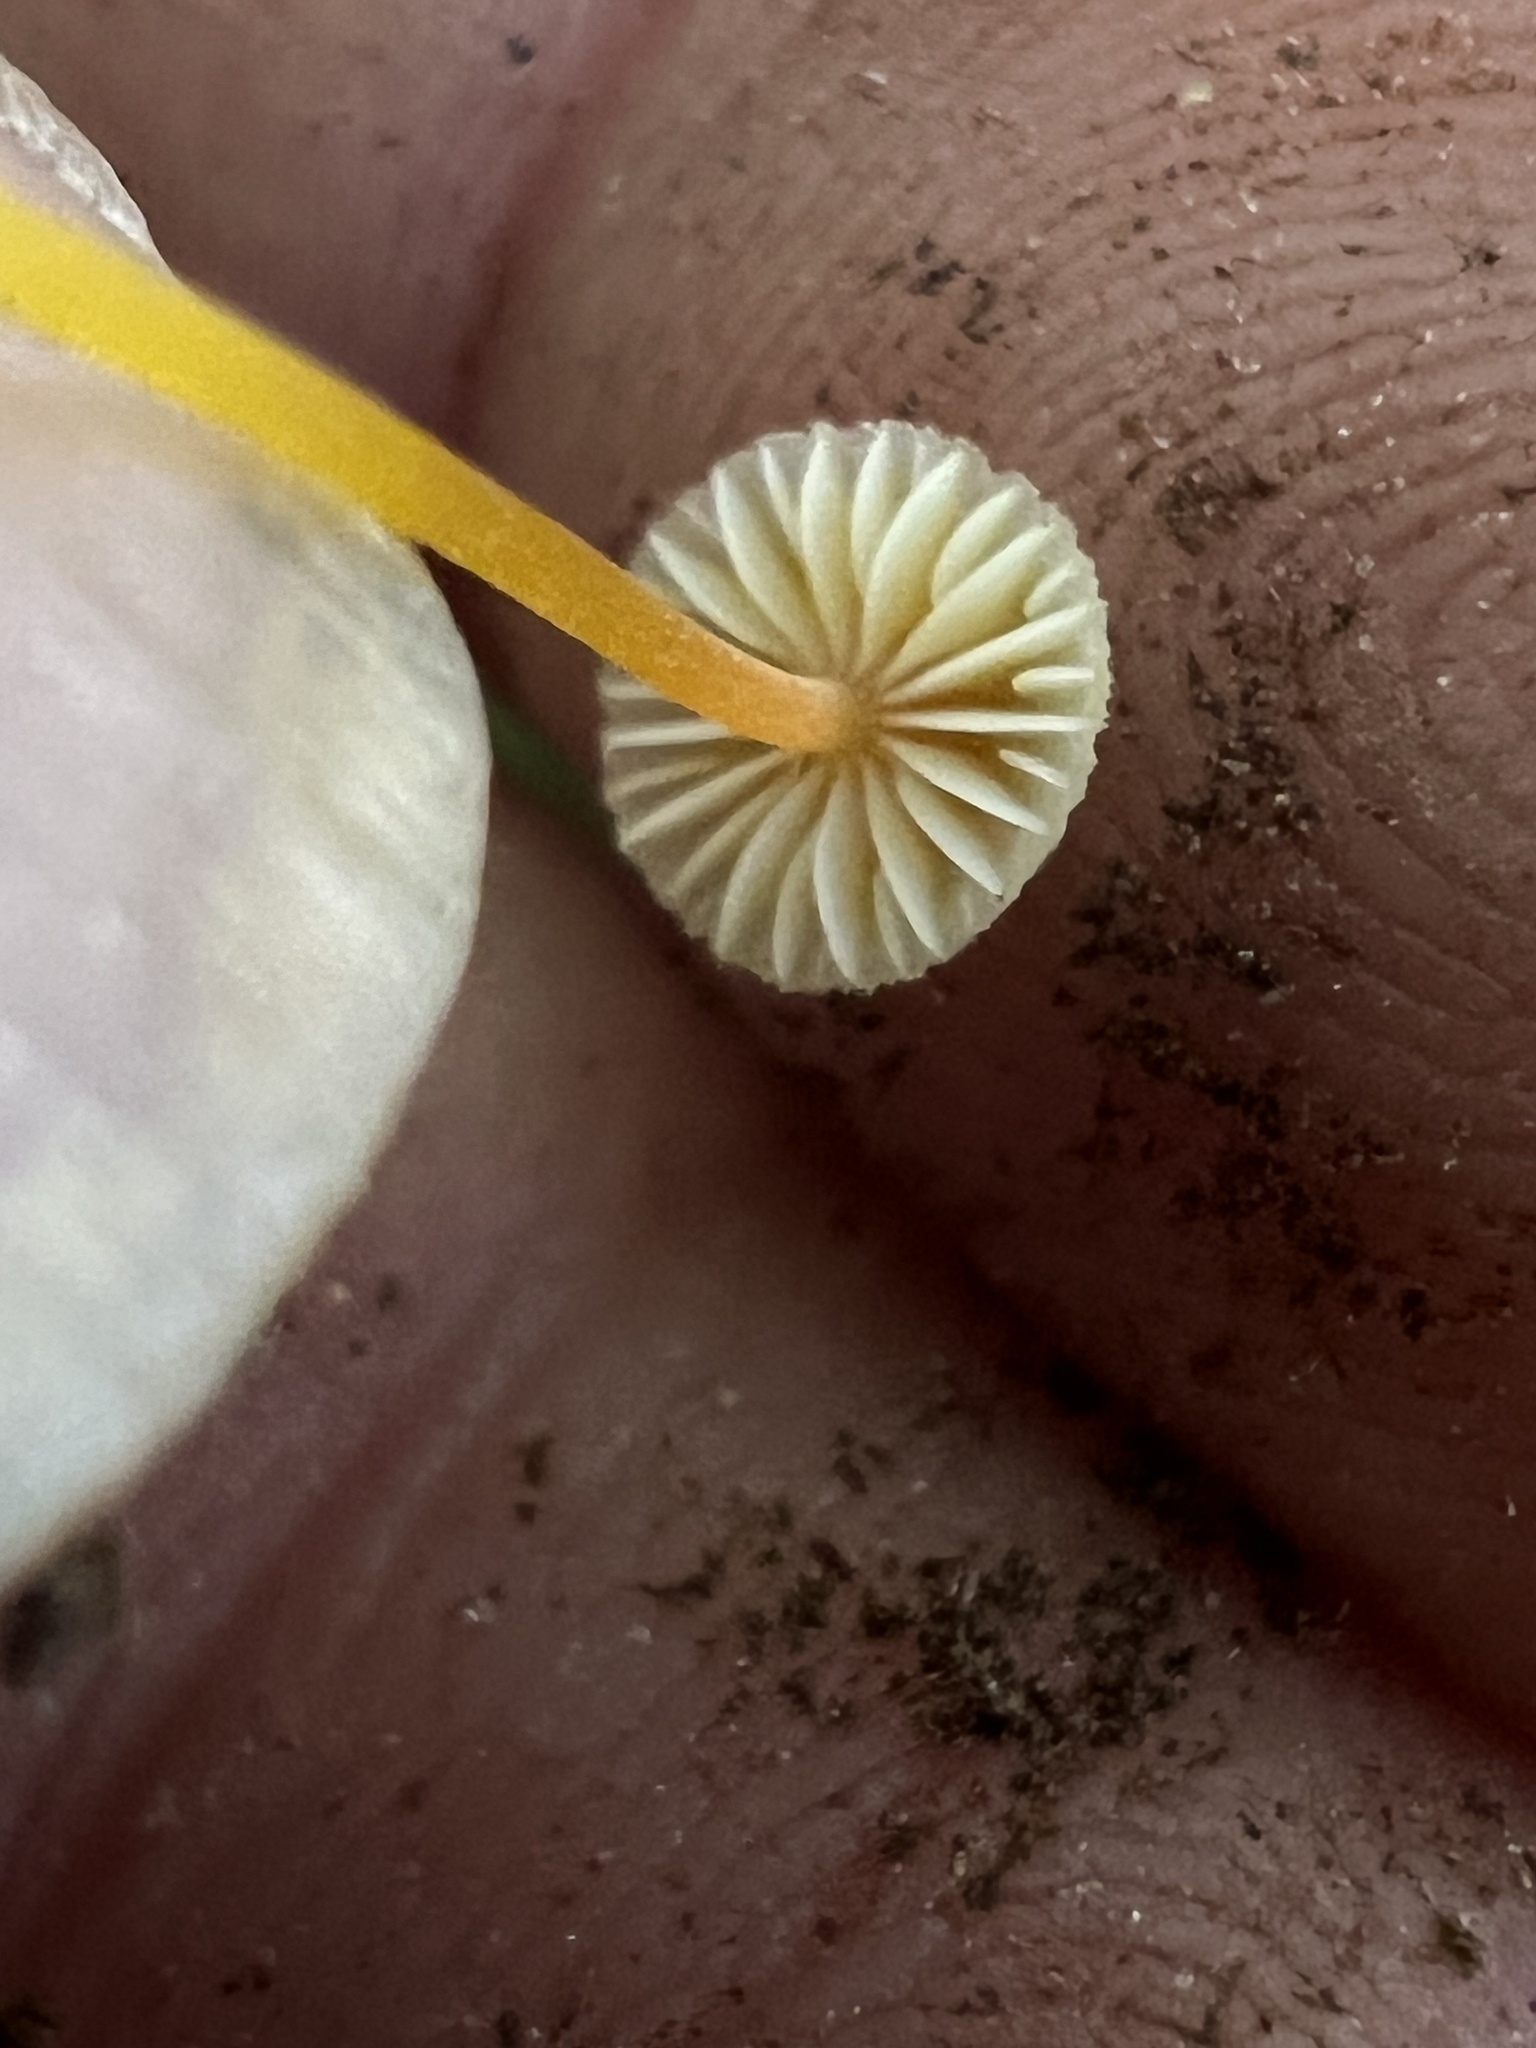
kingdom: Fungi
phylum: Basidiomycota
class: Agaricomycetes
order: Agaricales
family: Mycenaceae
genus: Mycena
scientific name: Mycena crocea
